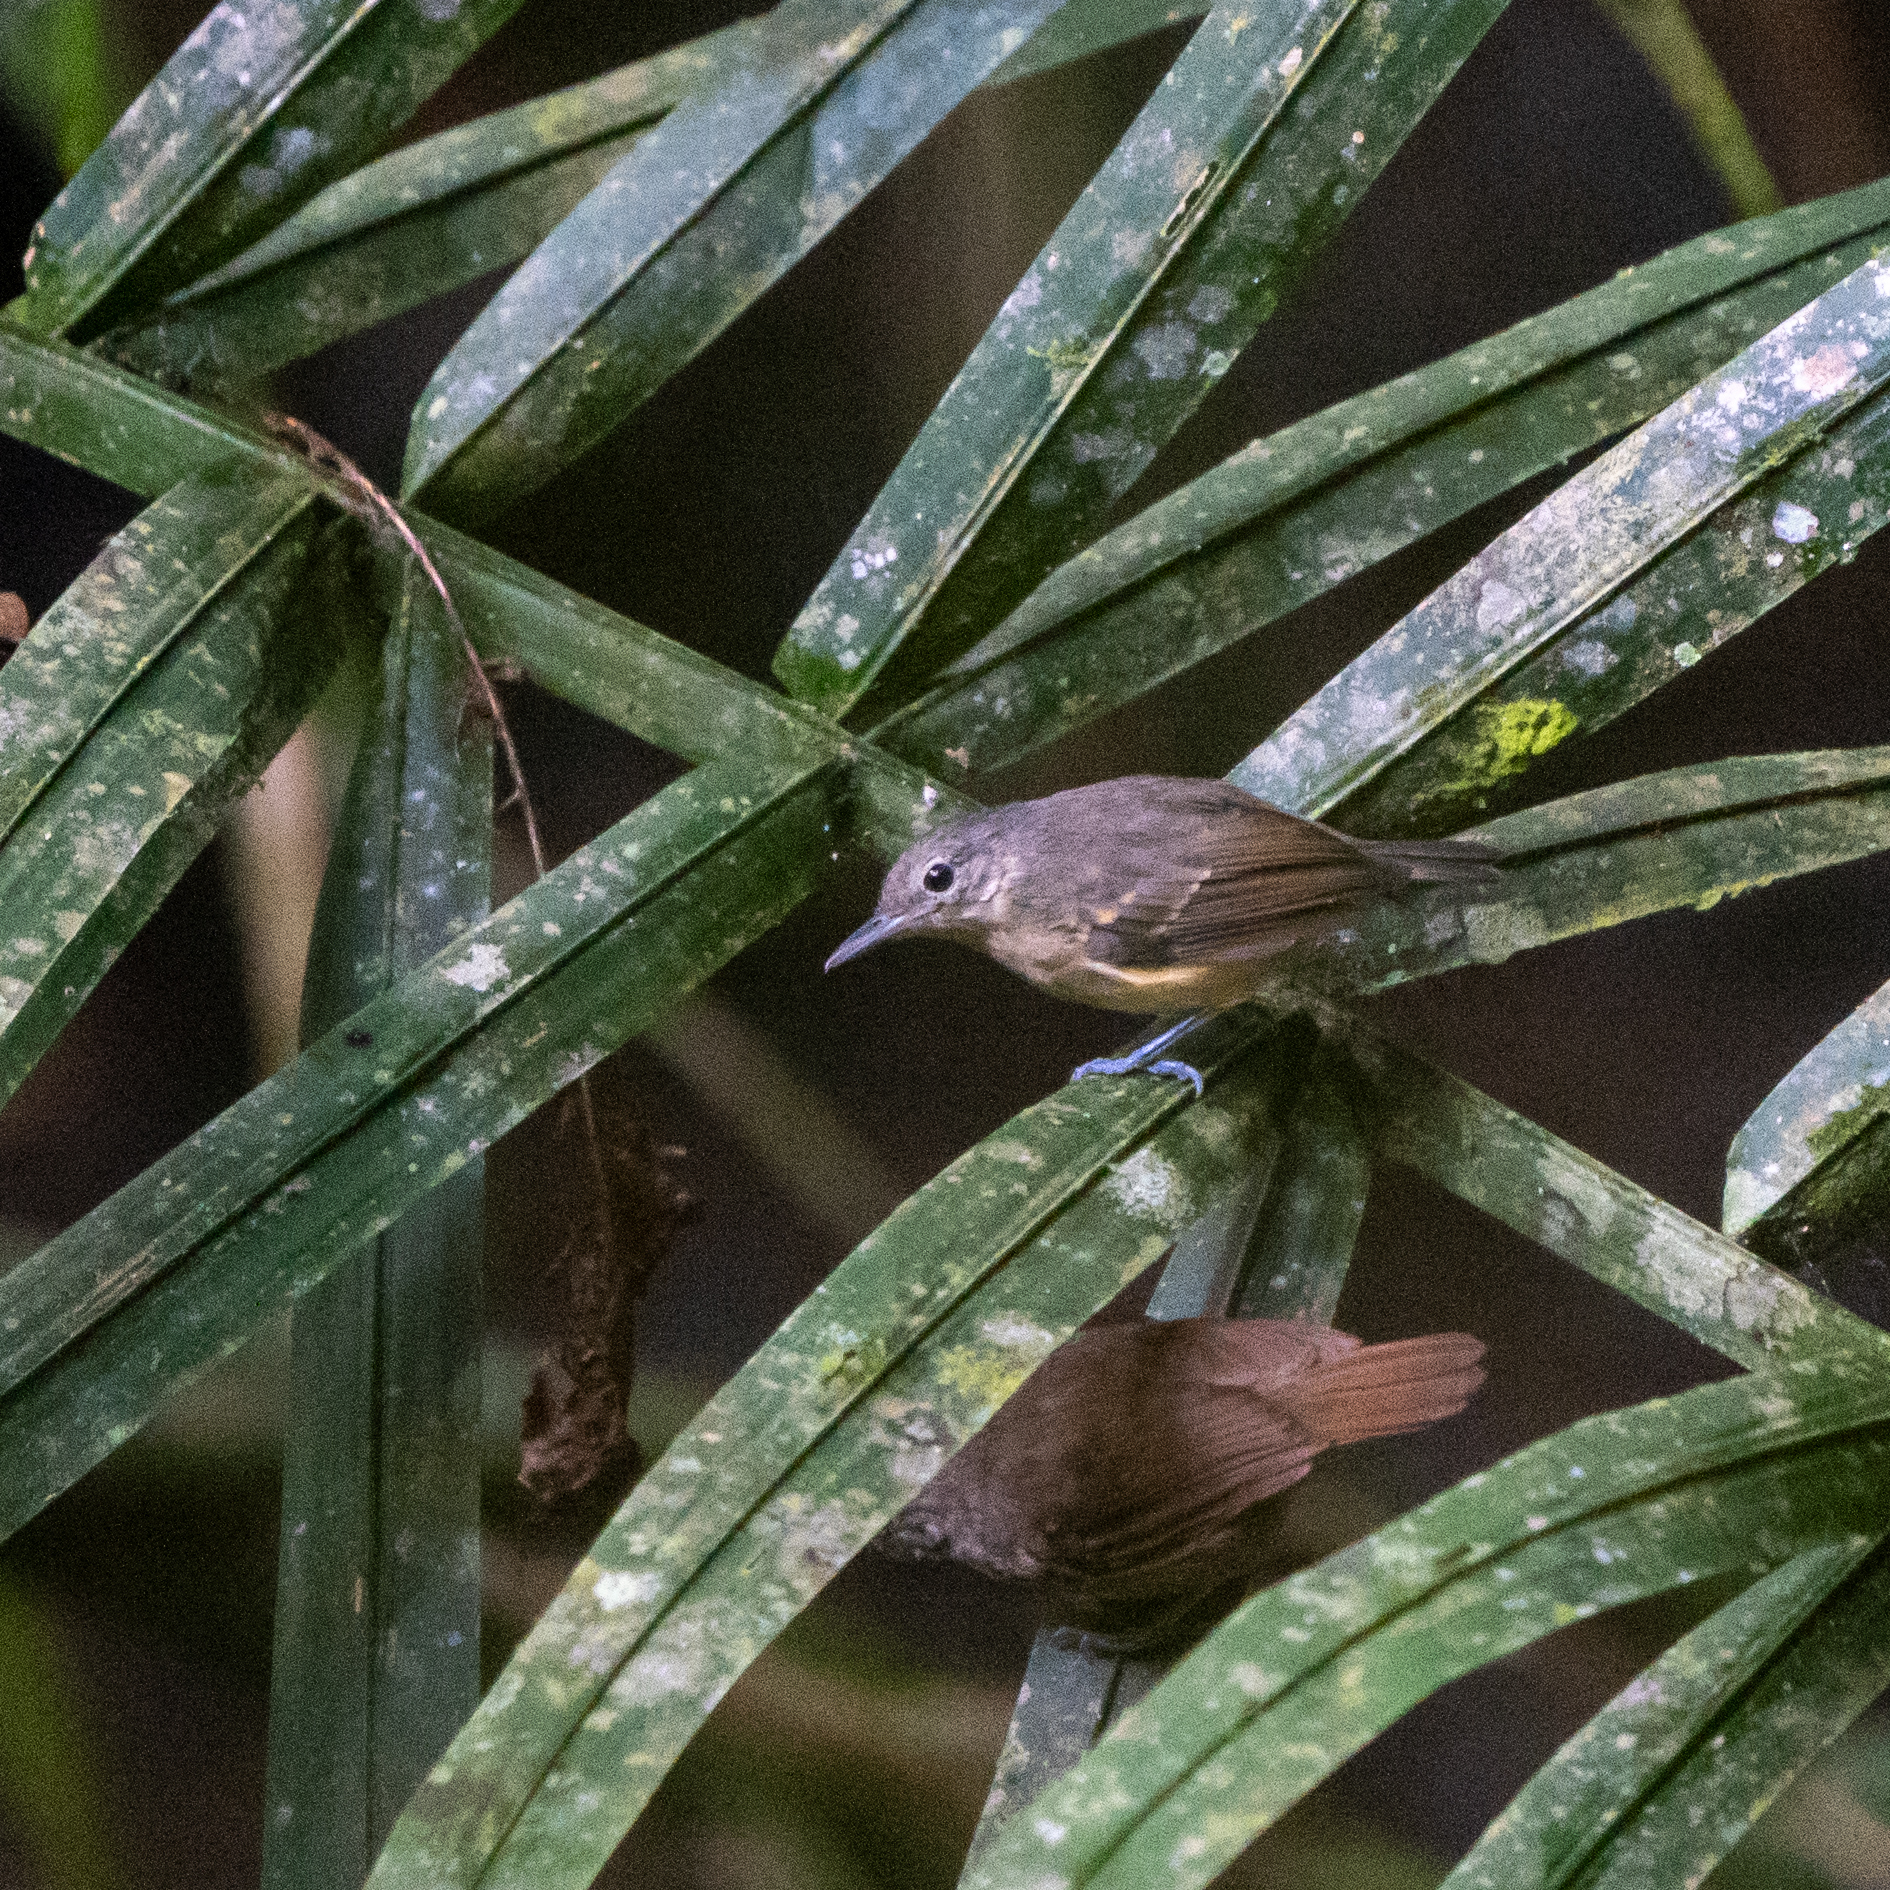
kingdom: Animalia
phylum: Chordata
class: Aves
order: Passeriformes
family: Thamnophilidae
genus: Myrmotherula
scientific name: Myrmotherula axillaris
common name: White-flanked antwren
